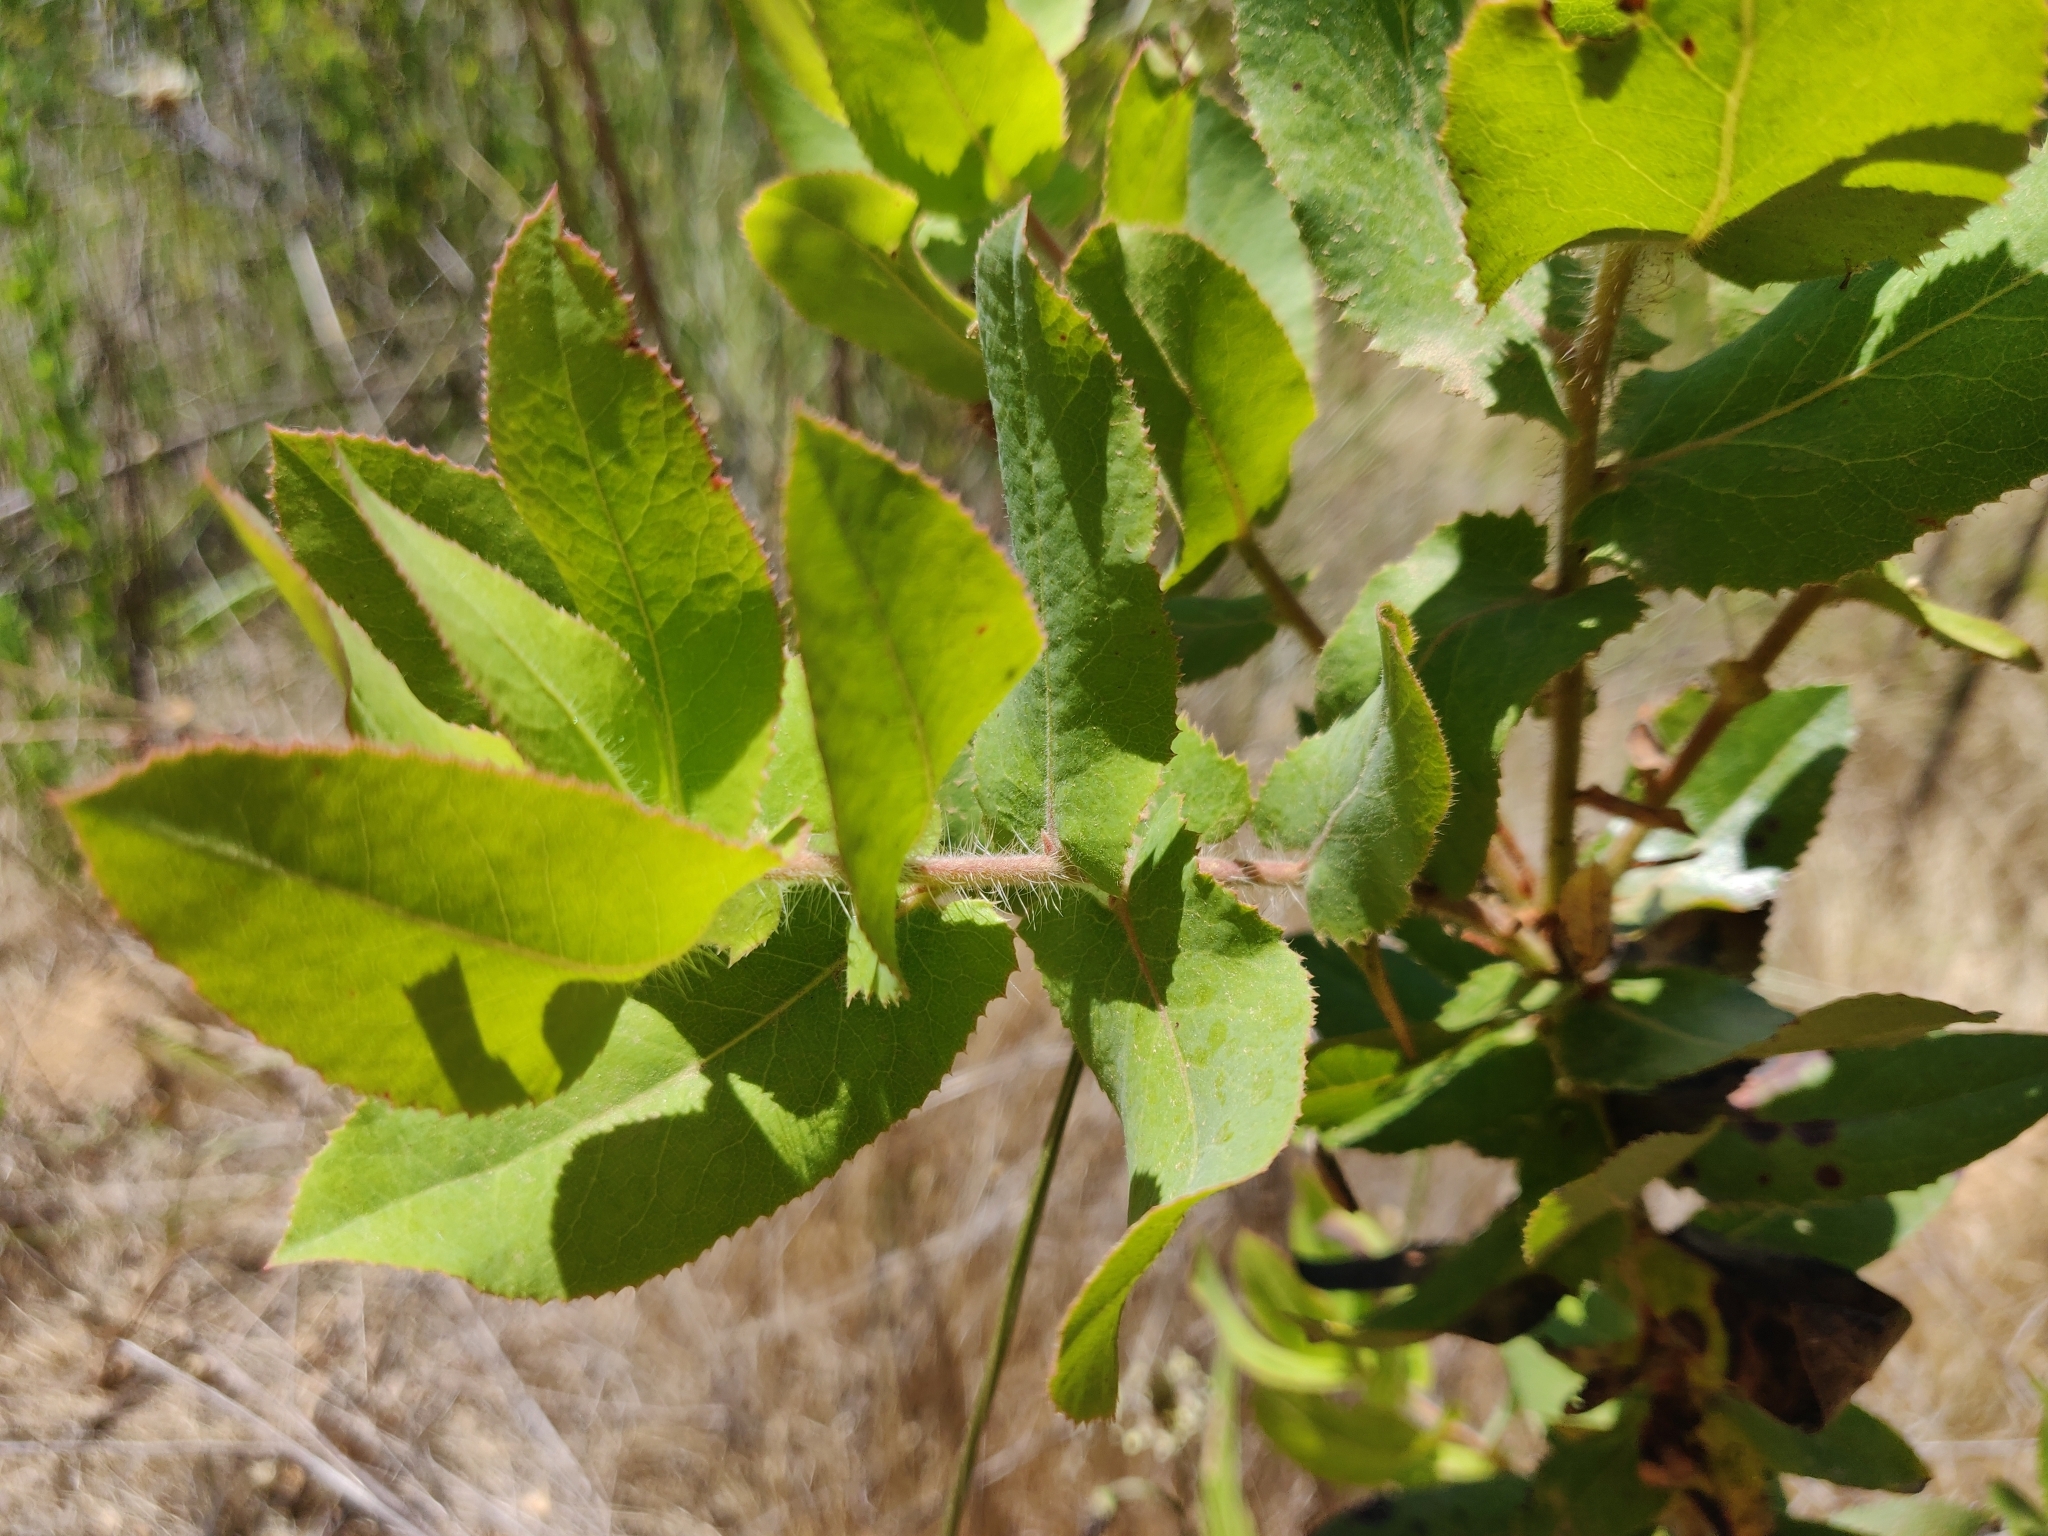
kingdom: Plantae
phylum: Tracheophyta
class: Magnoliopsida
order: Ericales
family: Ericaceae
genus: Arctostaphylos
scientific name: Arctostaphylos andersonii
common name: Santa cruz manzanita
